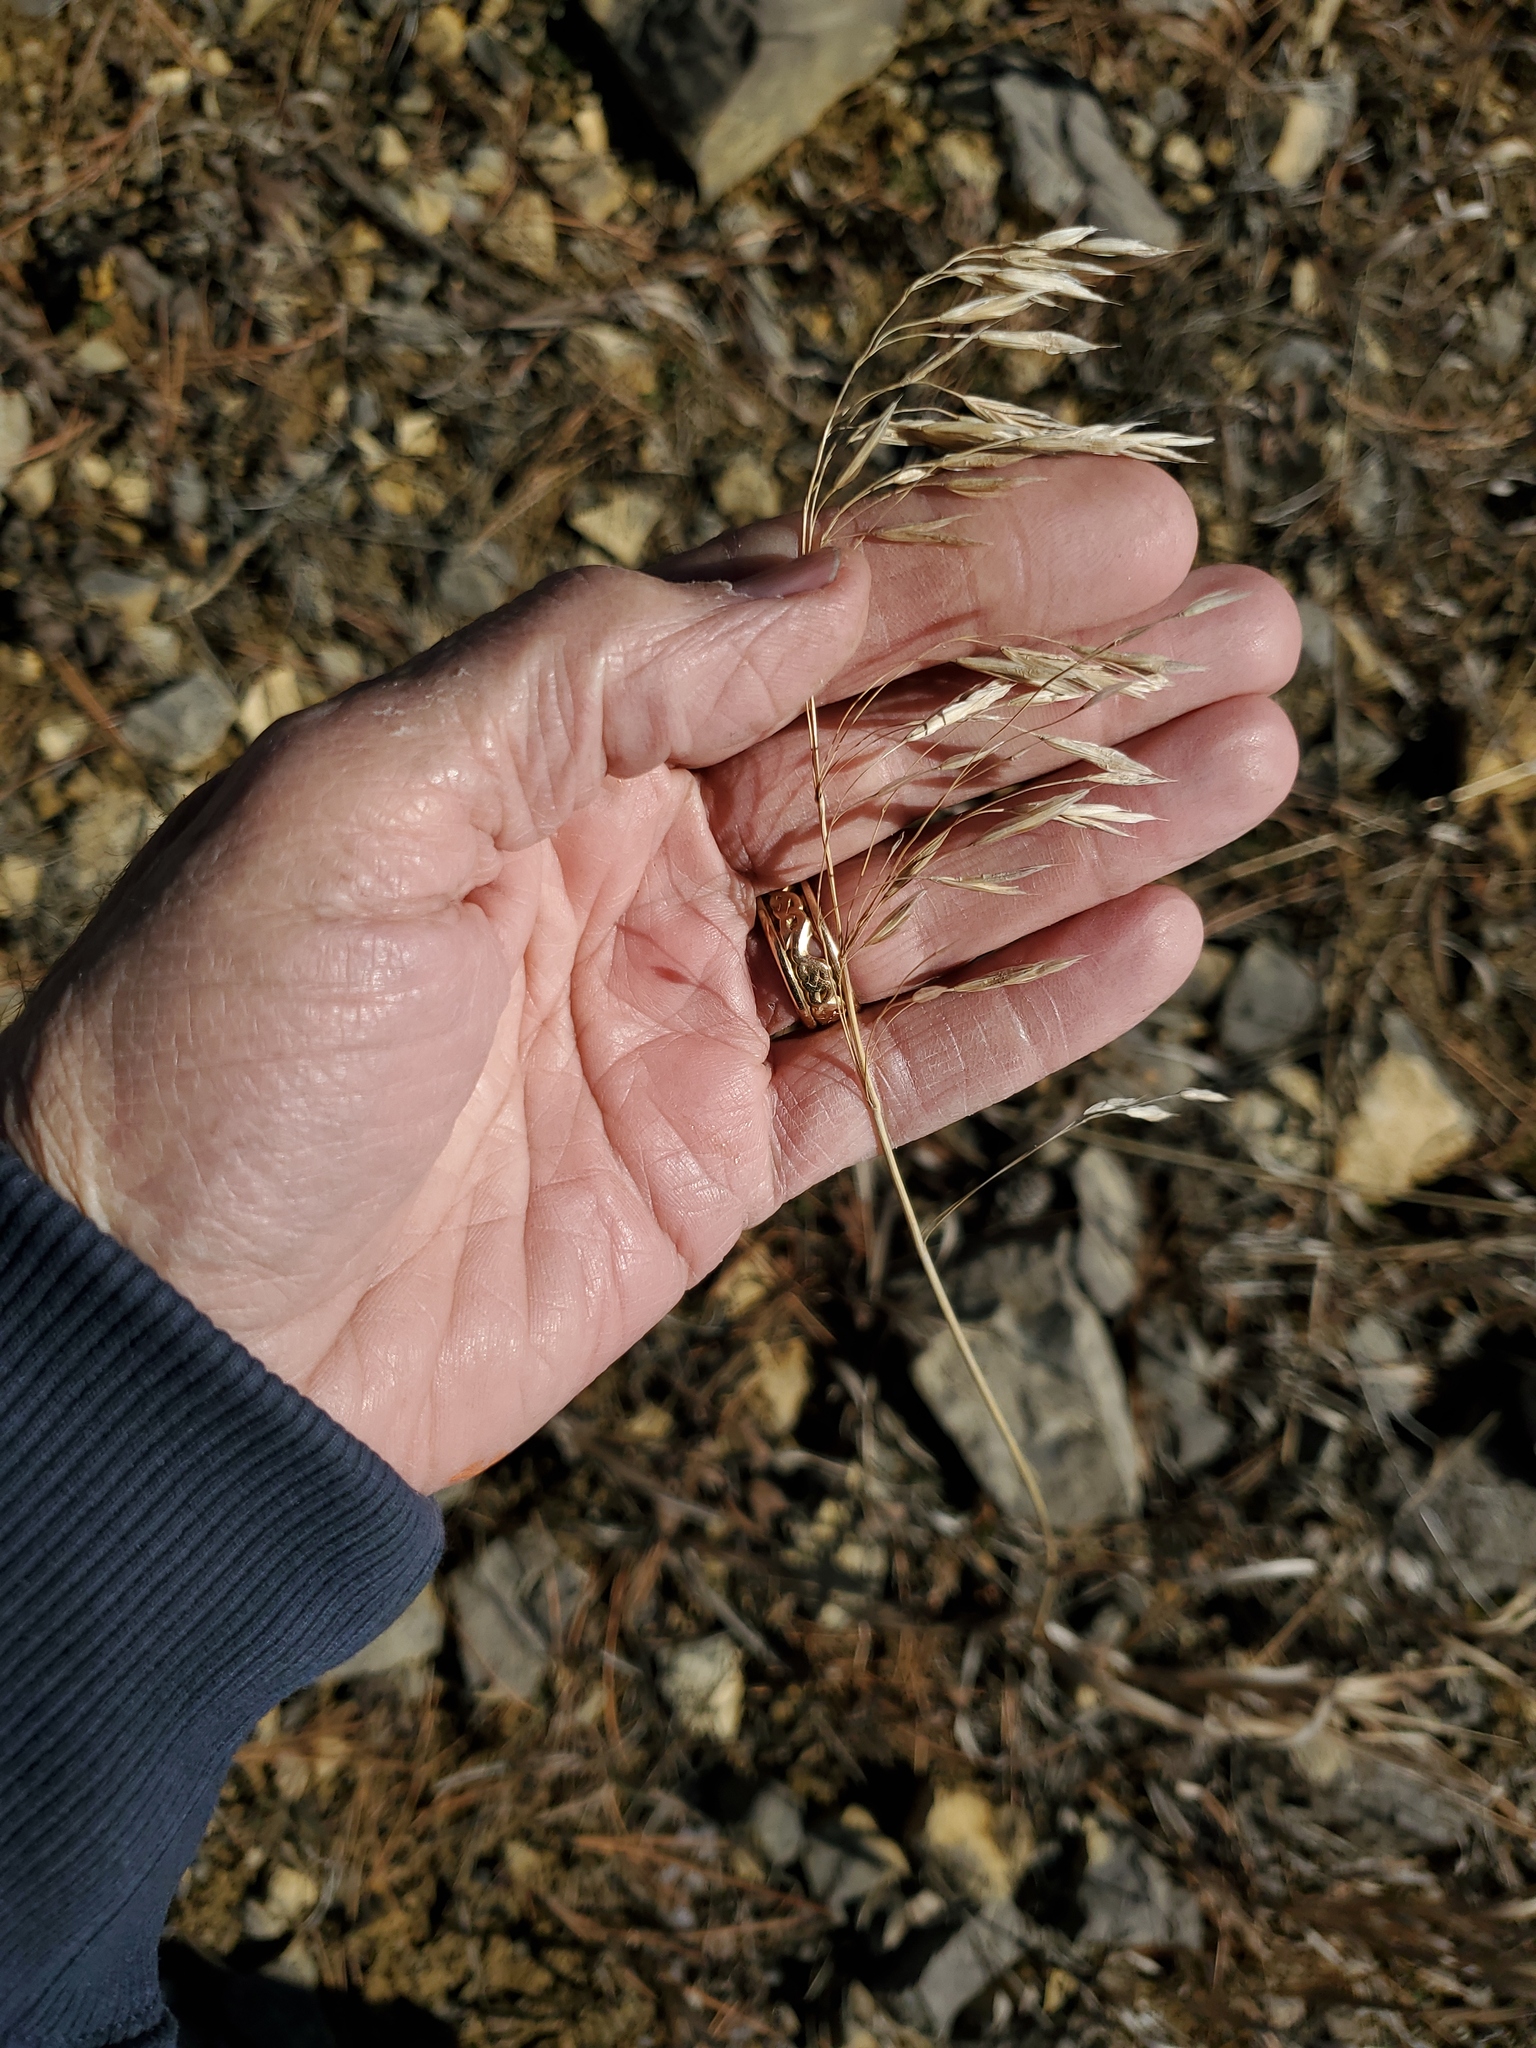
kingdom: Plantae
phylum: Tracheophyta
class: Liliopsida
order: Poales
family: Poaceae
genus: Bromus
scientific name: Bromus inermis
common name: Smooth brome
